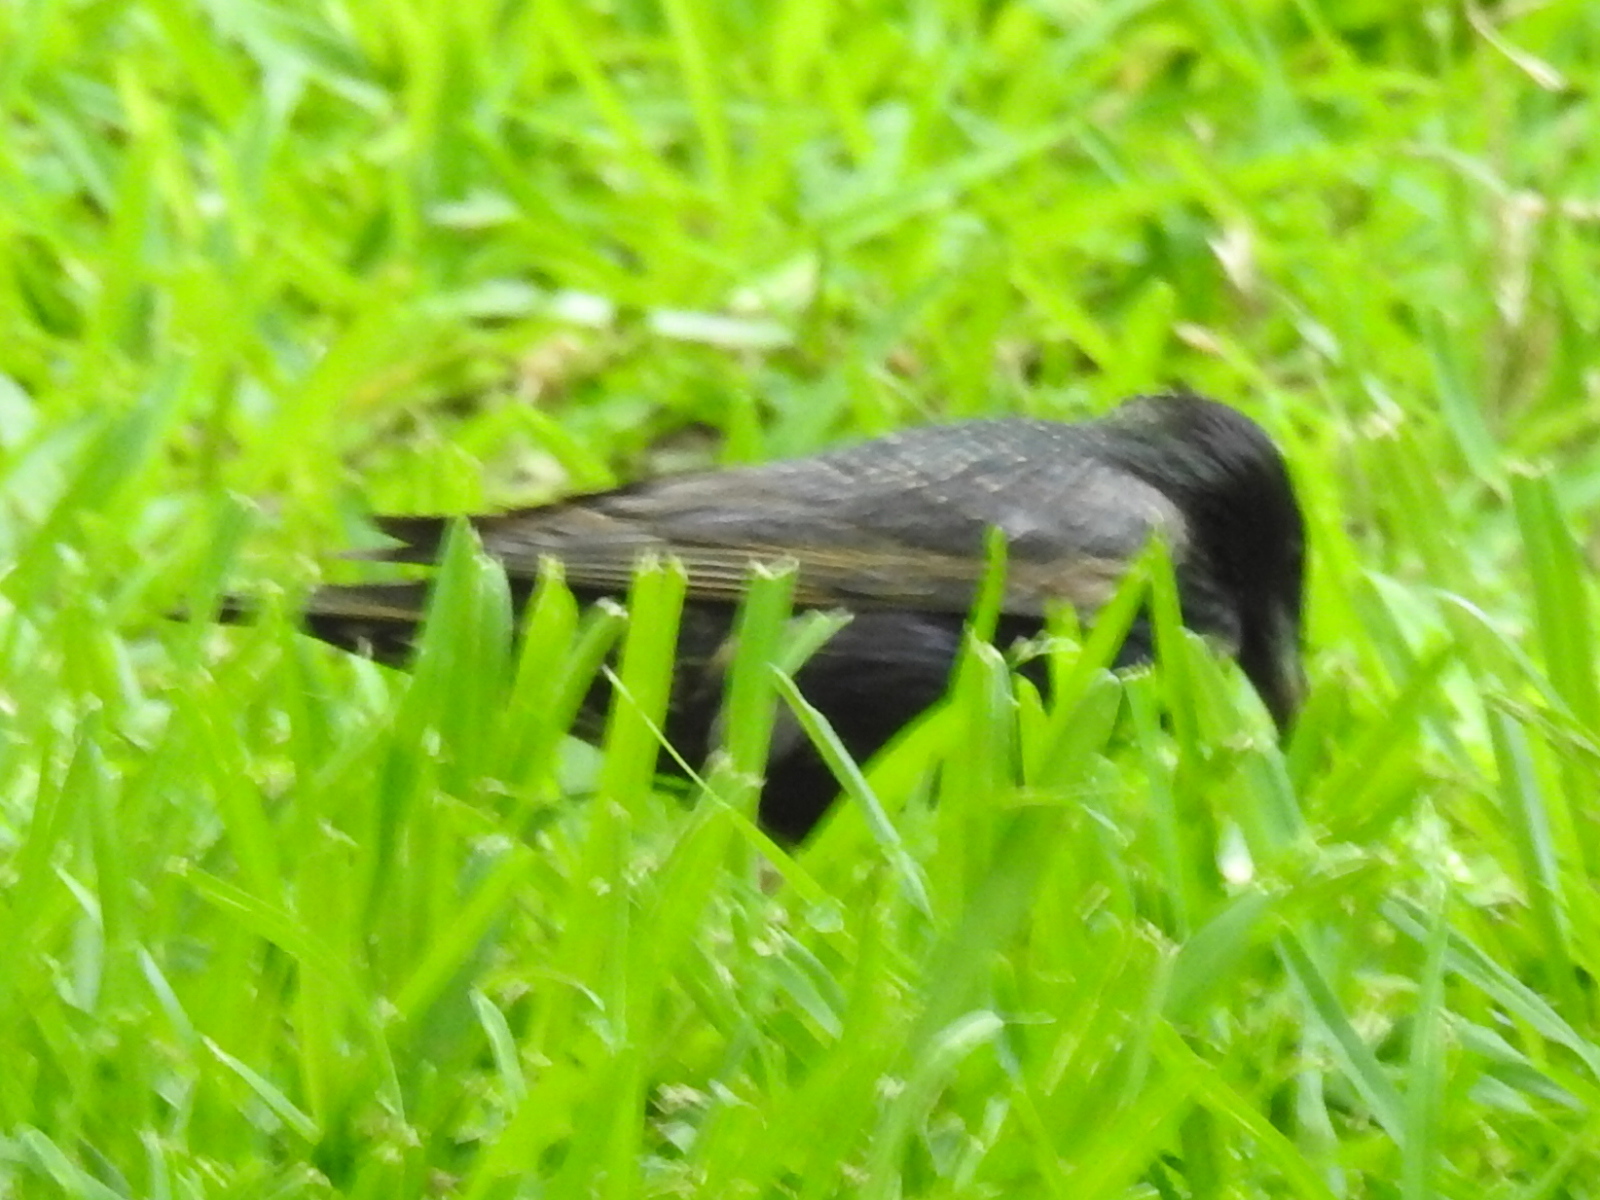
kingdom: Animalia
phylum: Chordata
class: Aves
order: Passeriformes
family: Sturnidae
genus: Sturnus
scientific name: Sturnus vulgaris
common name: Common starling
